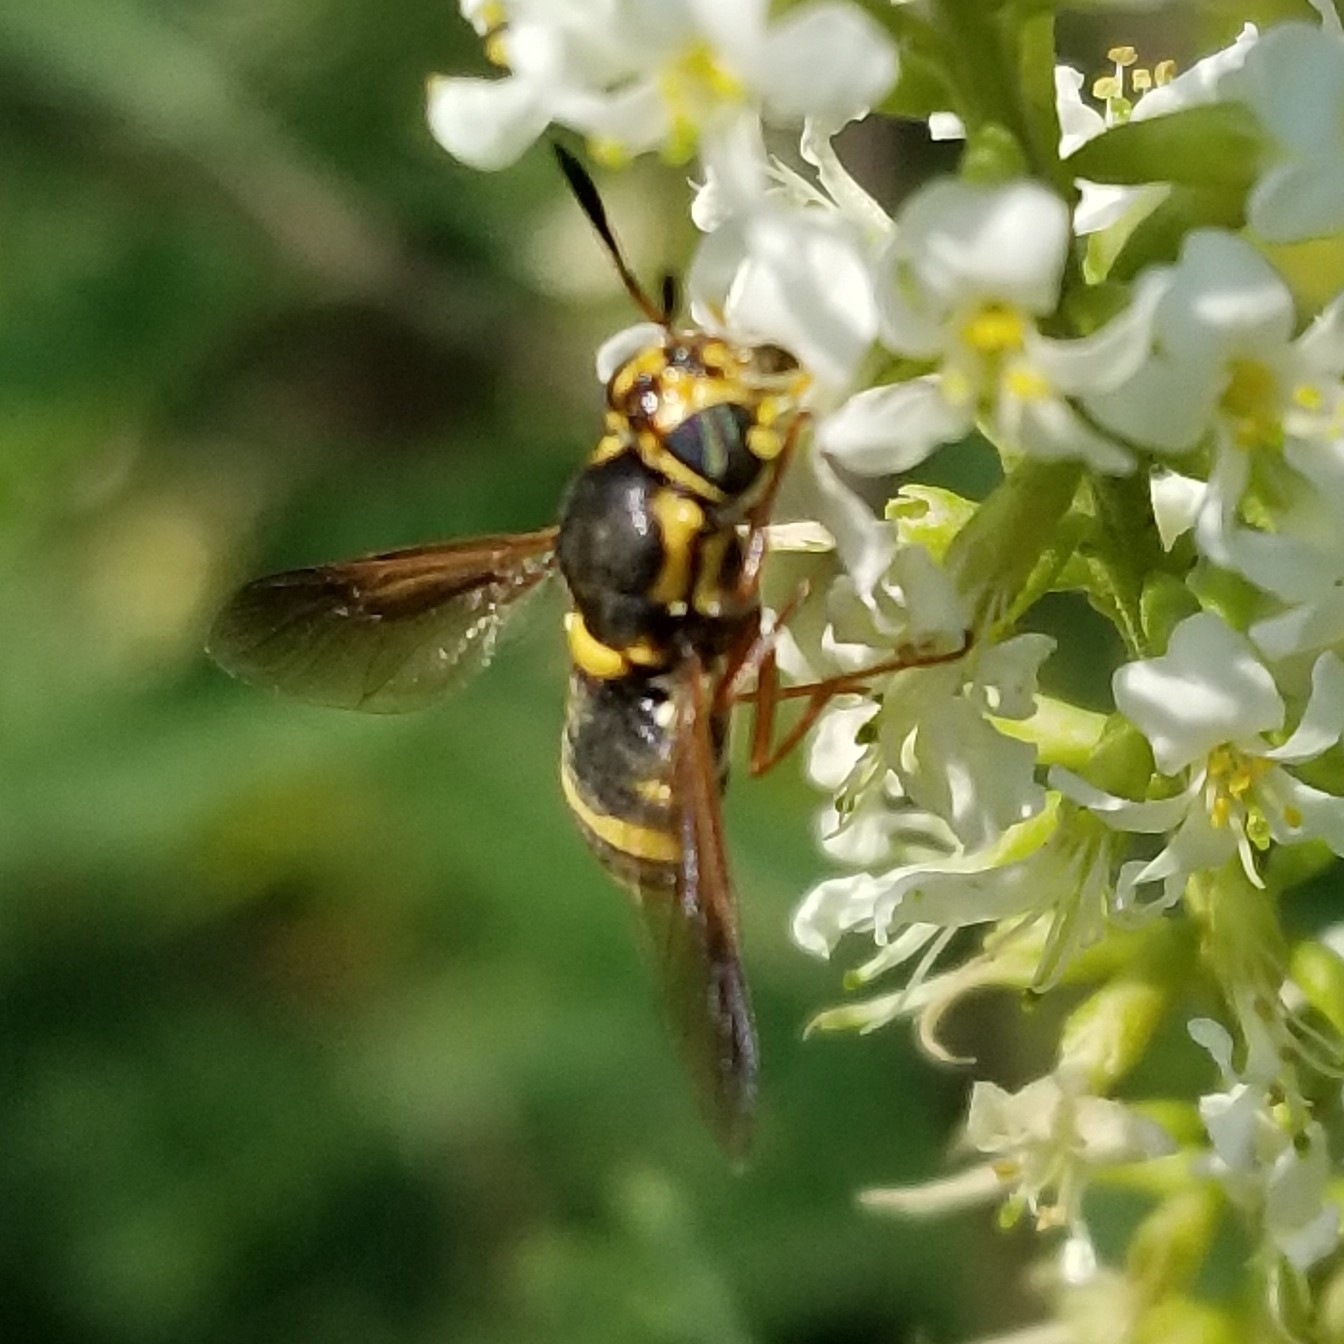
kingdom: Animalia
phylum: Arthropoda
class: Insecta
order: Diptera
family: Stratiomyidae
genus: Hoplitimyia
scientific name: Hoplitimyia constans
